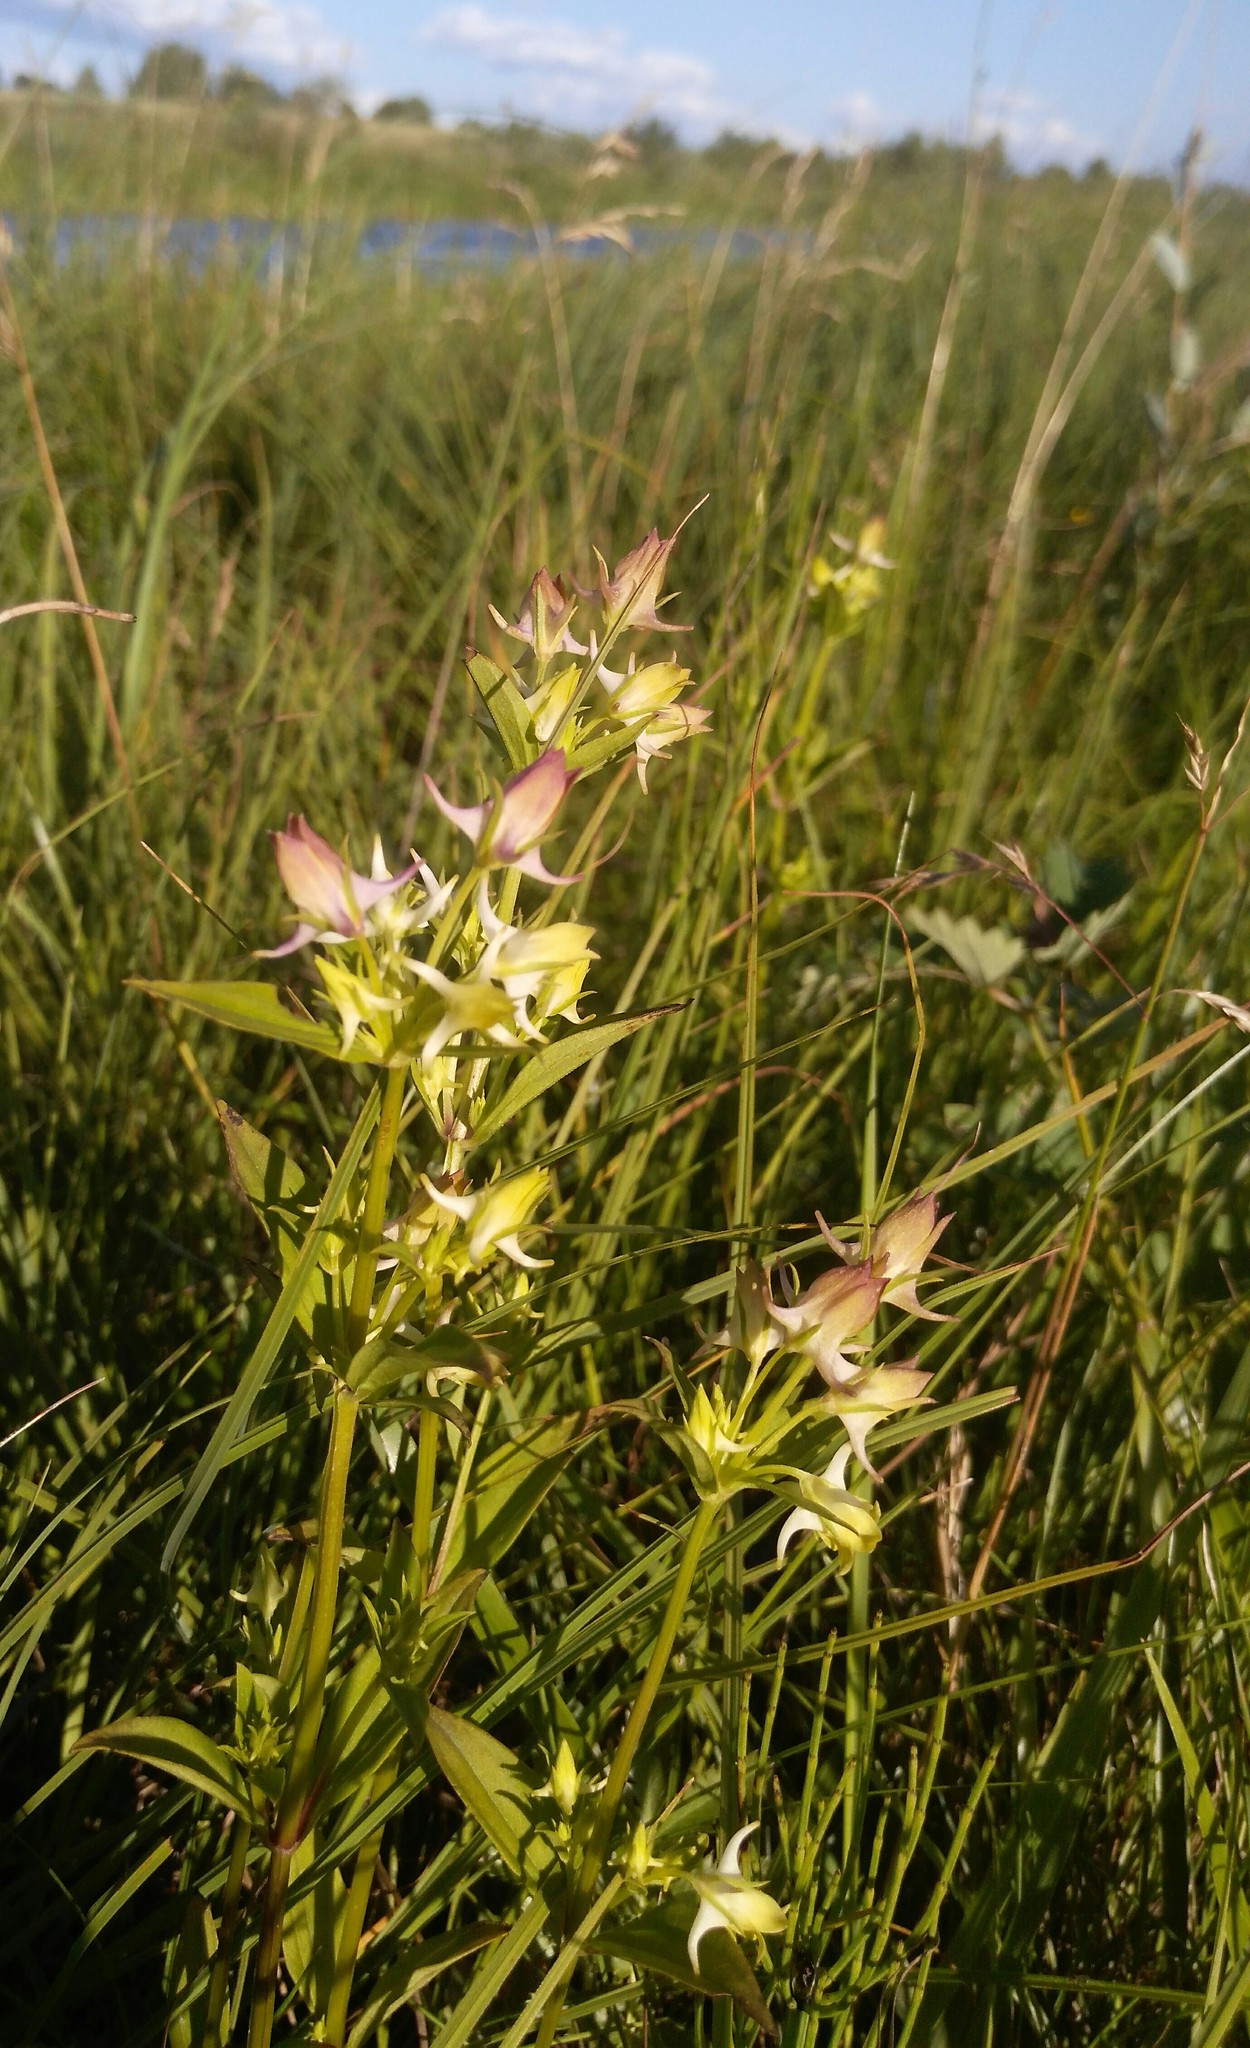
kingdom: Plantae
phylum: Tracheophyta
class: Magnoliopsida
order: Gentianales
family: Gentianaceae
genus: Halenia
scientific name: Halenia corniculata
